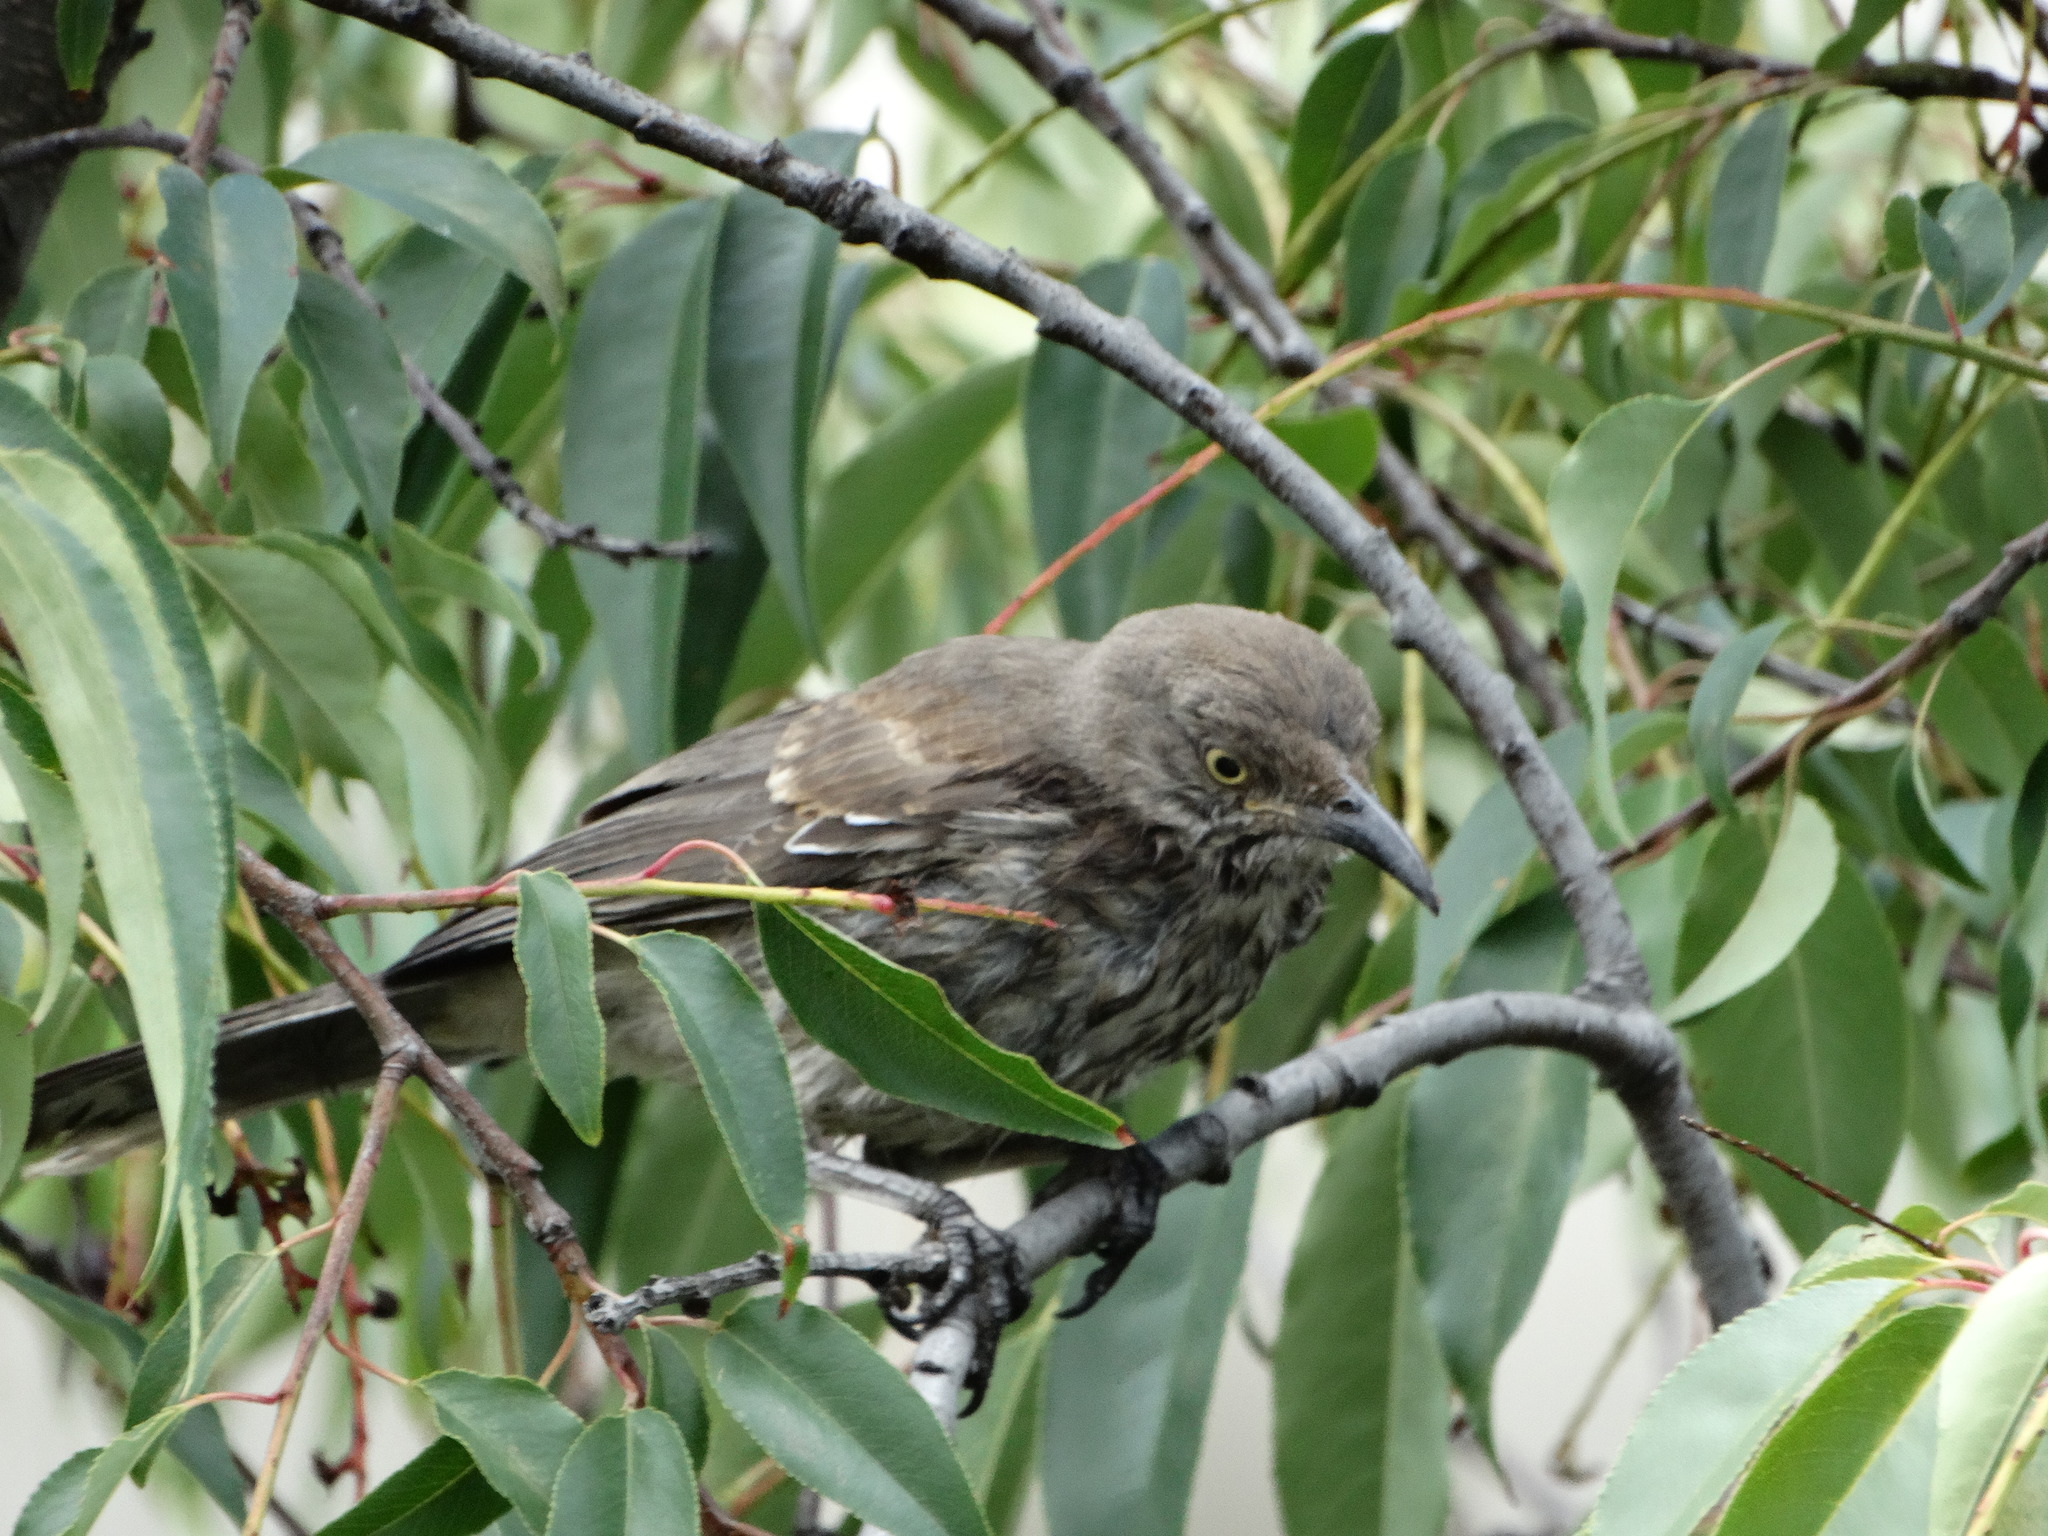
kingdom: Animalia
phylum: Chordata
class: Aves
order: Passeriformes
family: Mimidae
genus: Toxostoma
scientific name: Toxostoma curvirostre
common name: Curve-billed thrasher
